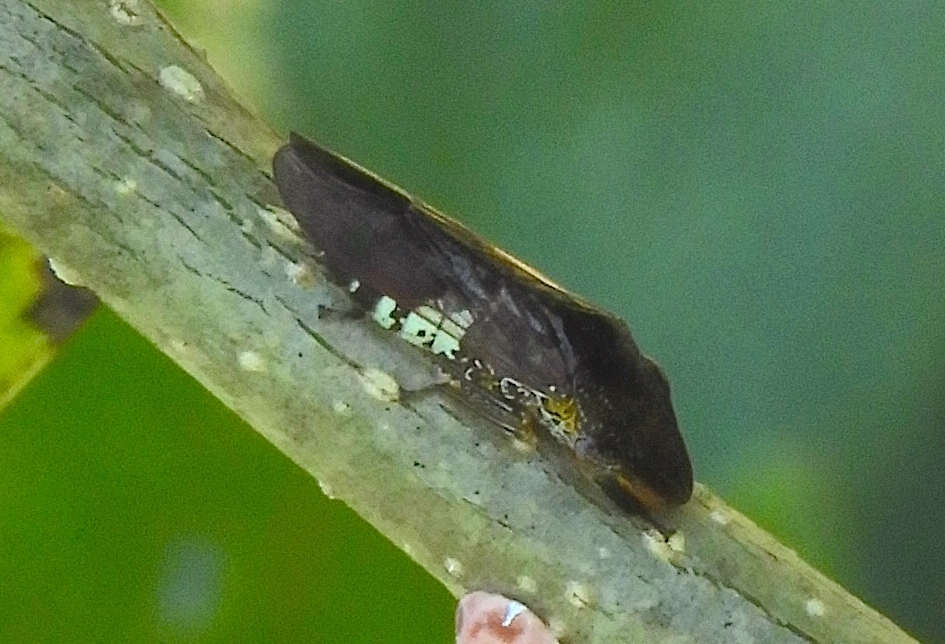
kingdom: Animalia
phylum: Arthropoda
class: Insecta
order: Hemiptera
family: Cicadellidae
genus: Homalodisca
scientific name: Homalodisca
